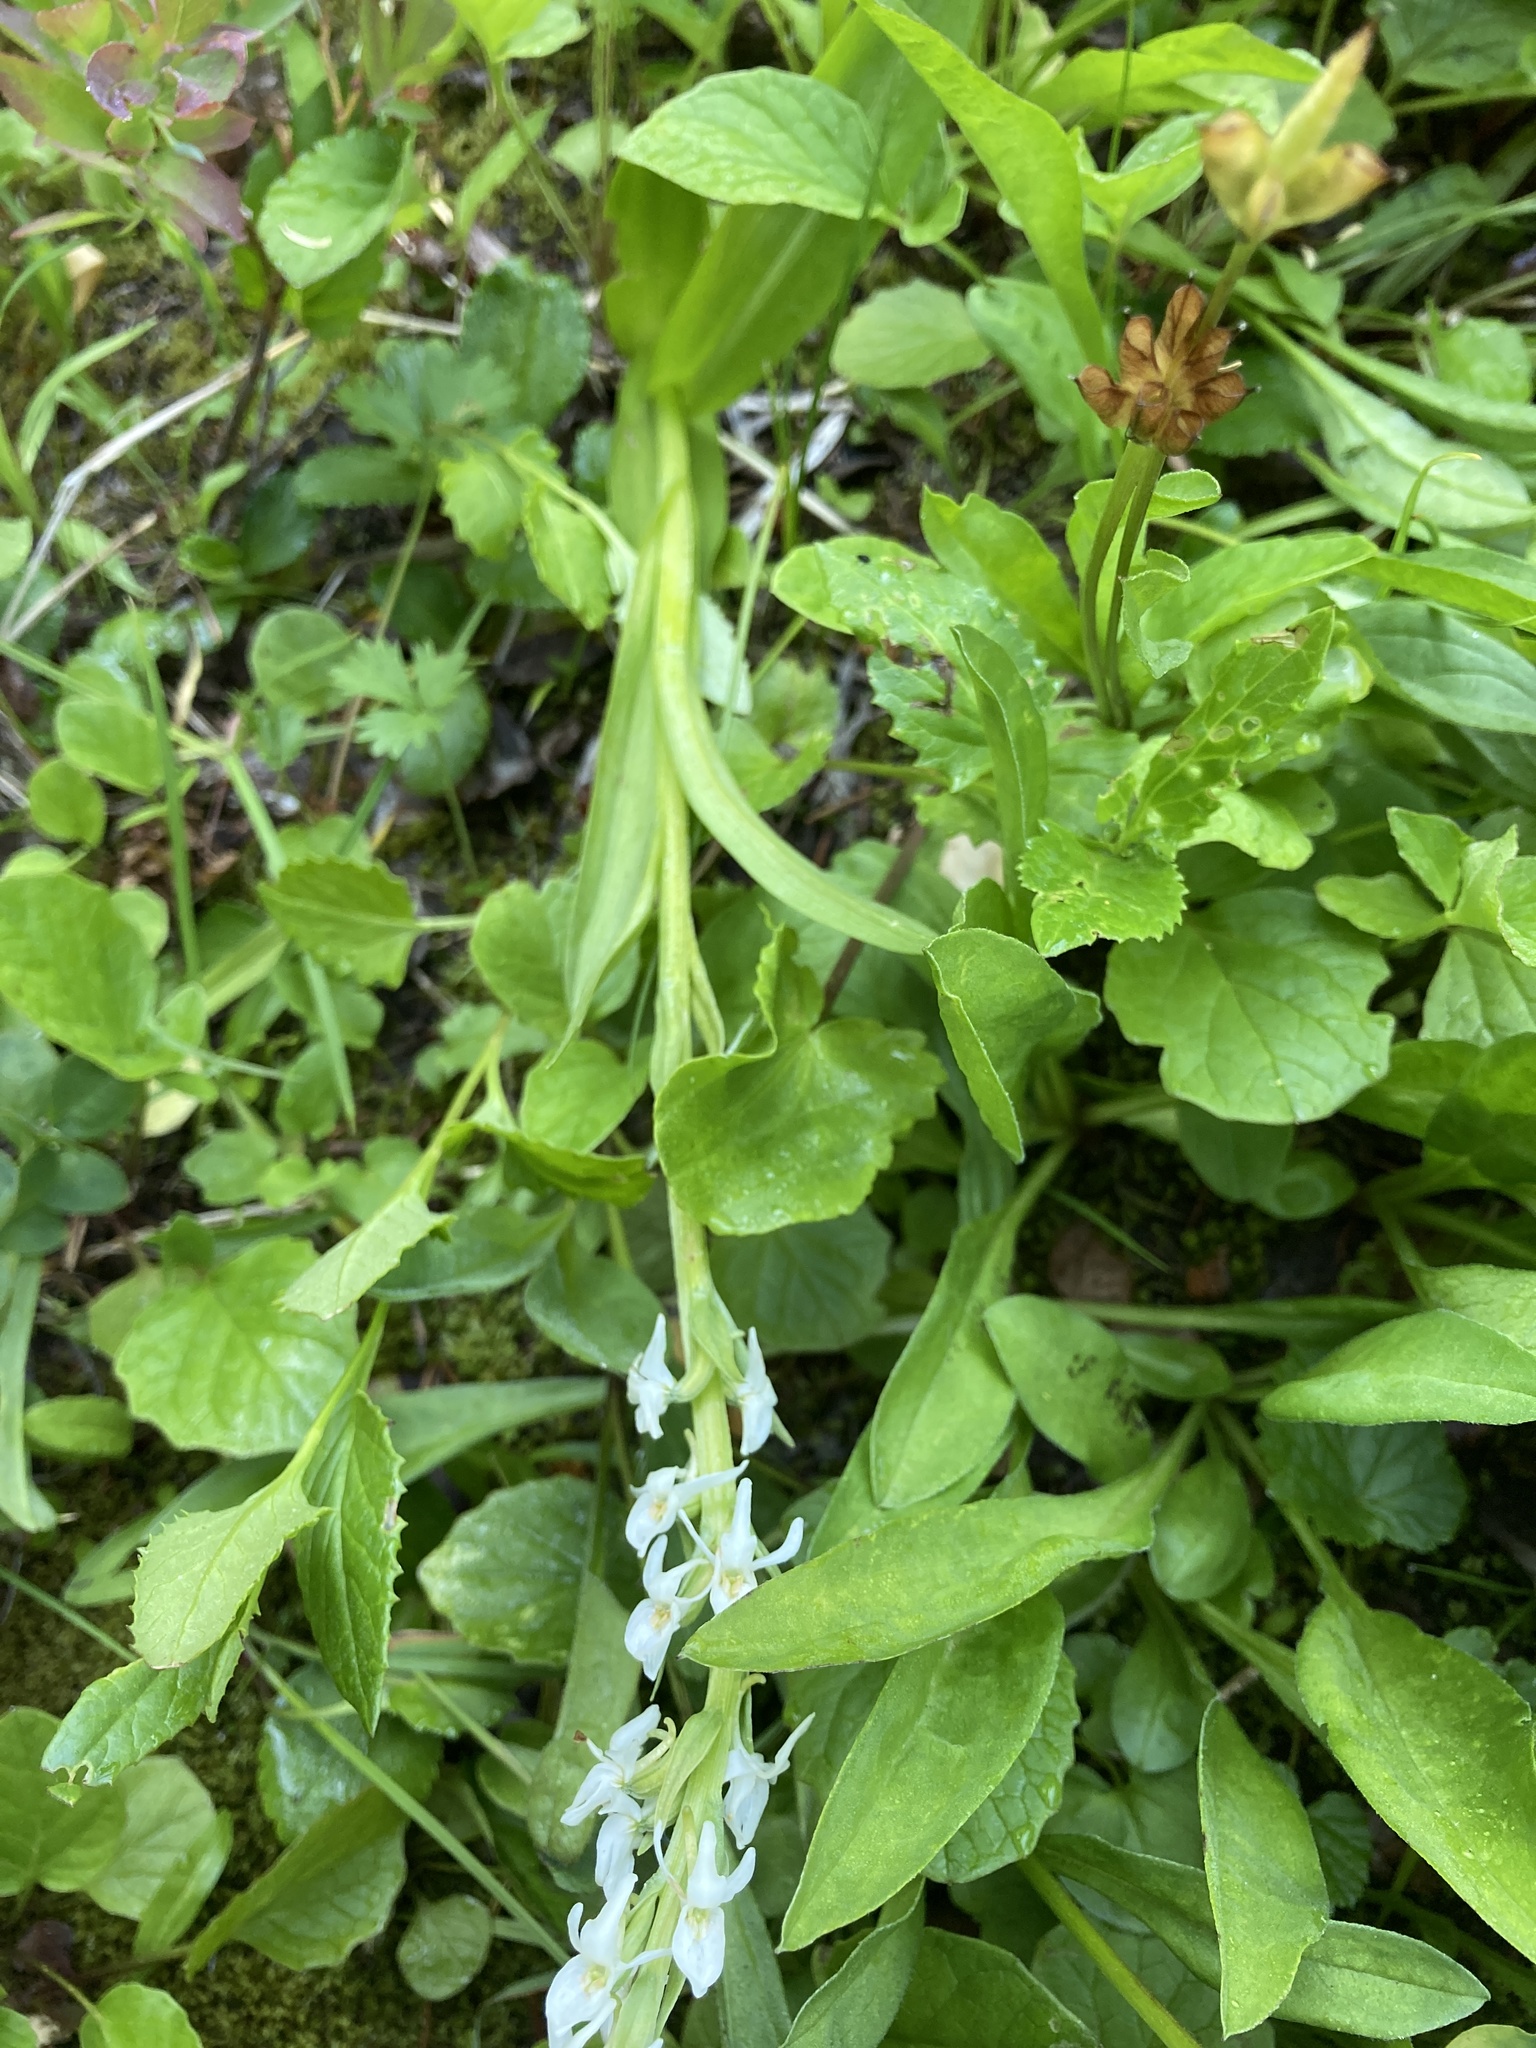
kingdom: Plantae
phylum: Tracheophyta
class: Liliopsida
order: Asparagales
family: Orchidaceae
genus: Platanthera
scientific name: Platanthera dilatata
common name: Bog candles
